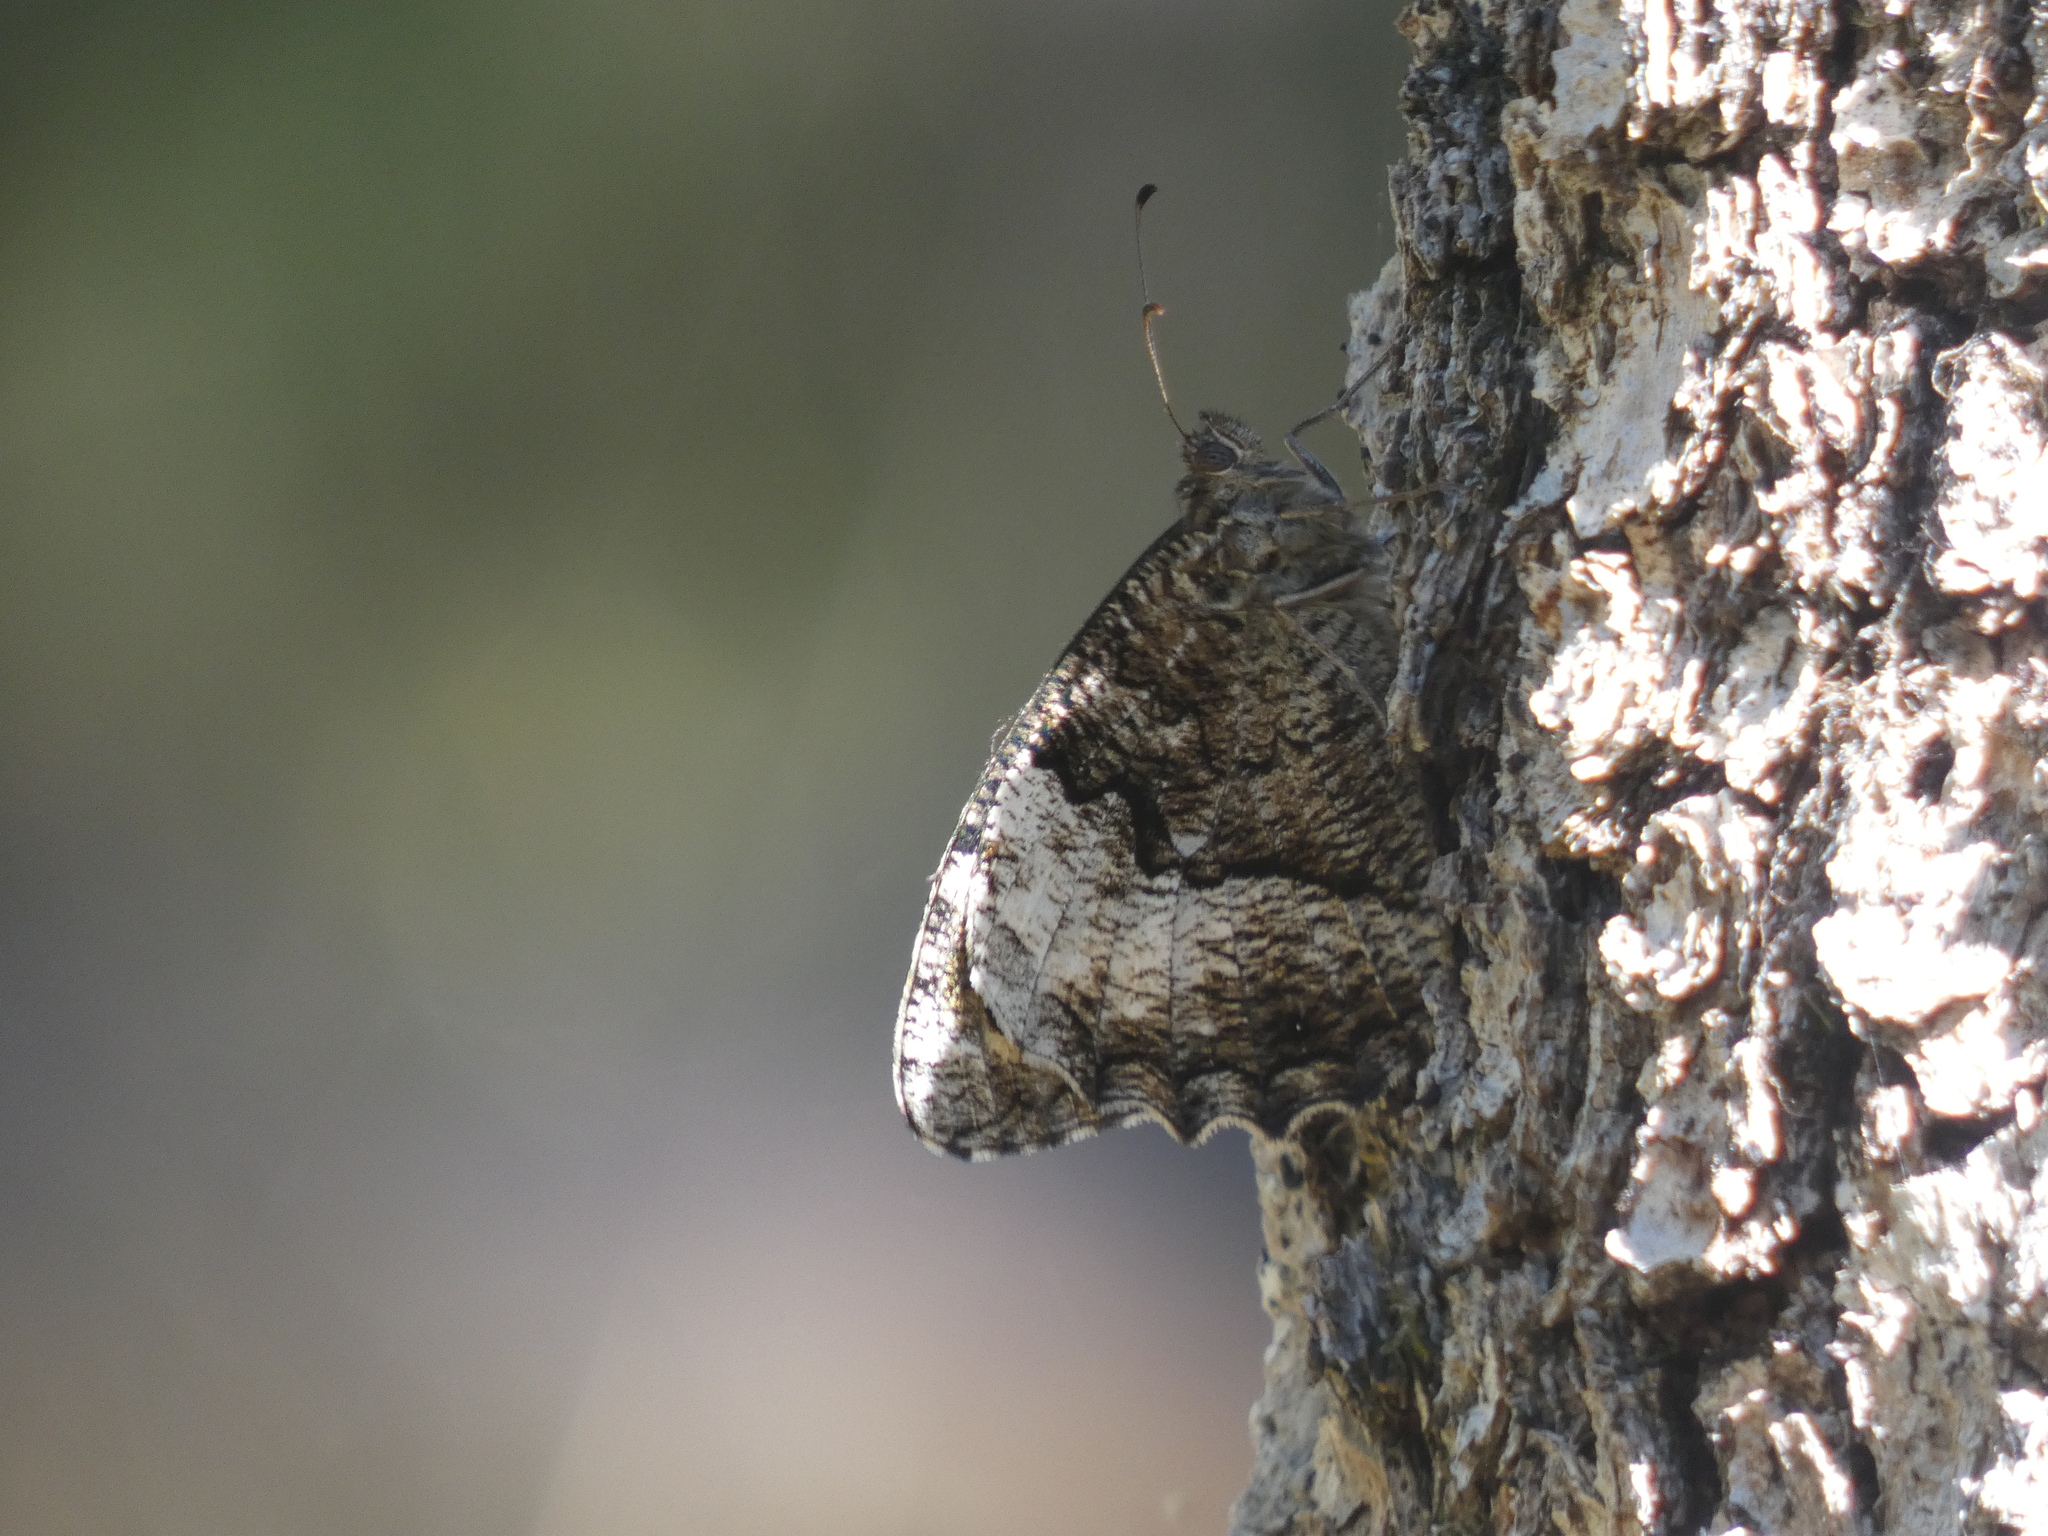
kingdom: Animalia
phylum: Arthropoda
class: Insecta
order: Lepidoptera
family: Nymphalidae
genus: Hipparchia
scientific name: Hipparchia fagi
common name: Woodland grayling
